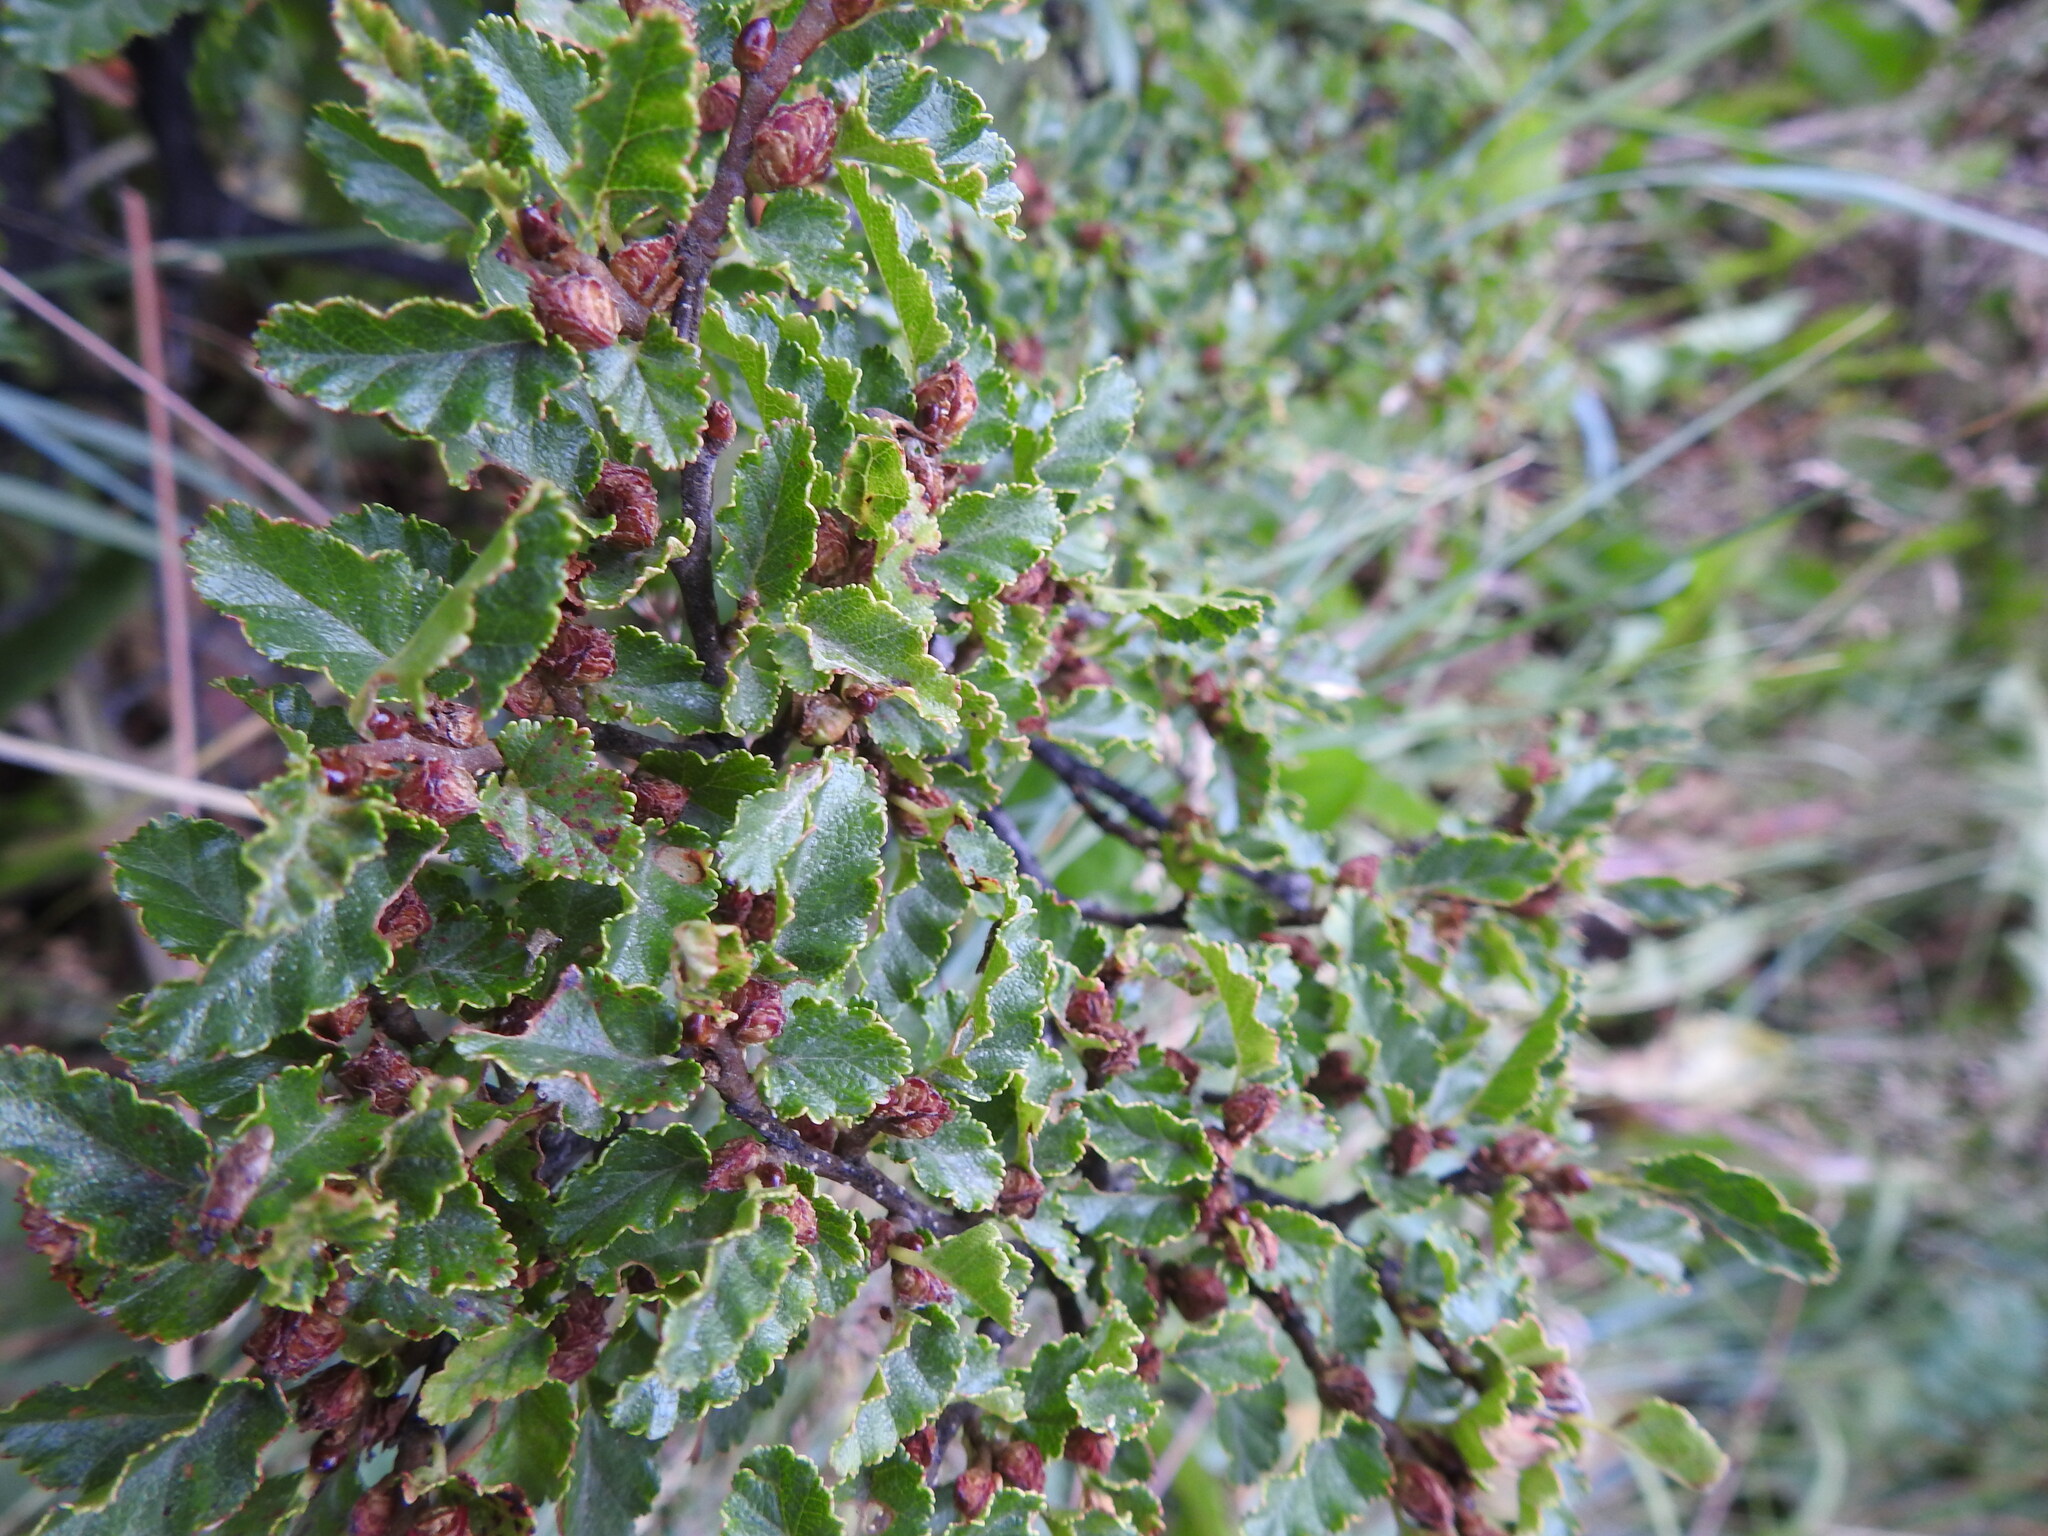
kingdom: Plantae
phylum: Tracheophyta
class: Magnoliopsida
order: Fagales
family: Nothofagaceae
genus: Nothofagus
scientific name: Nothofagus antarctica
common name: Antarctic beech
